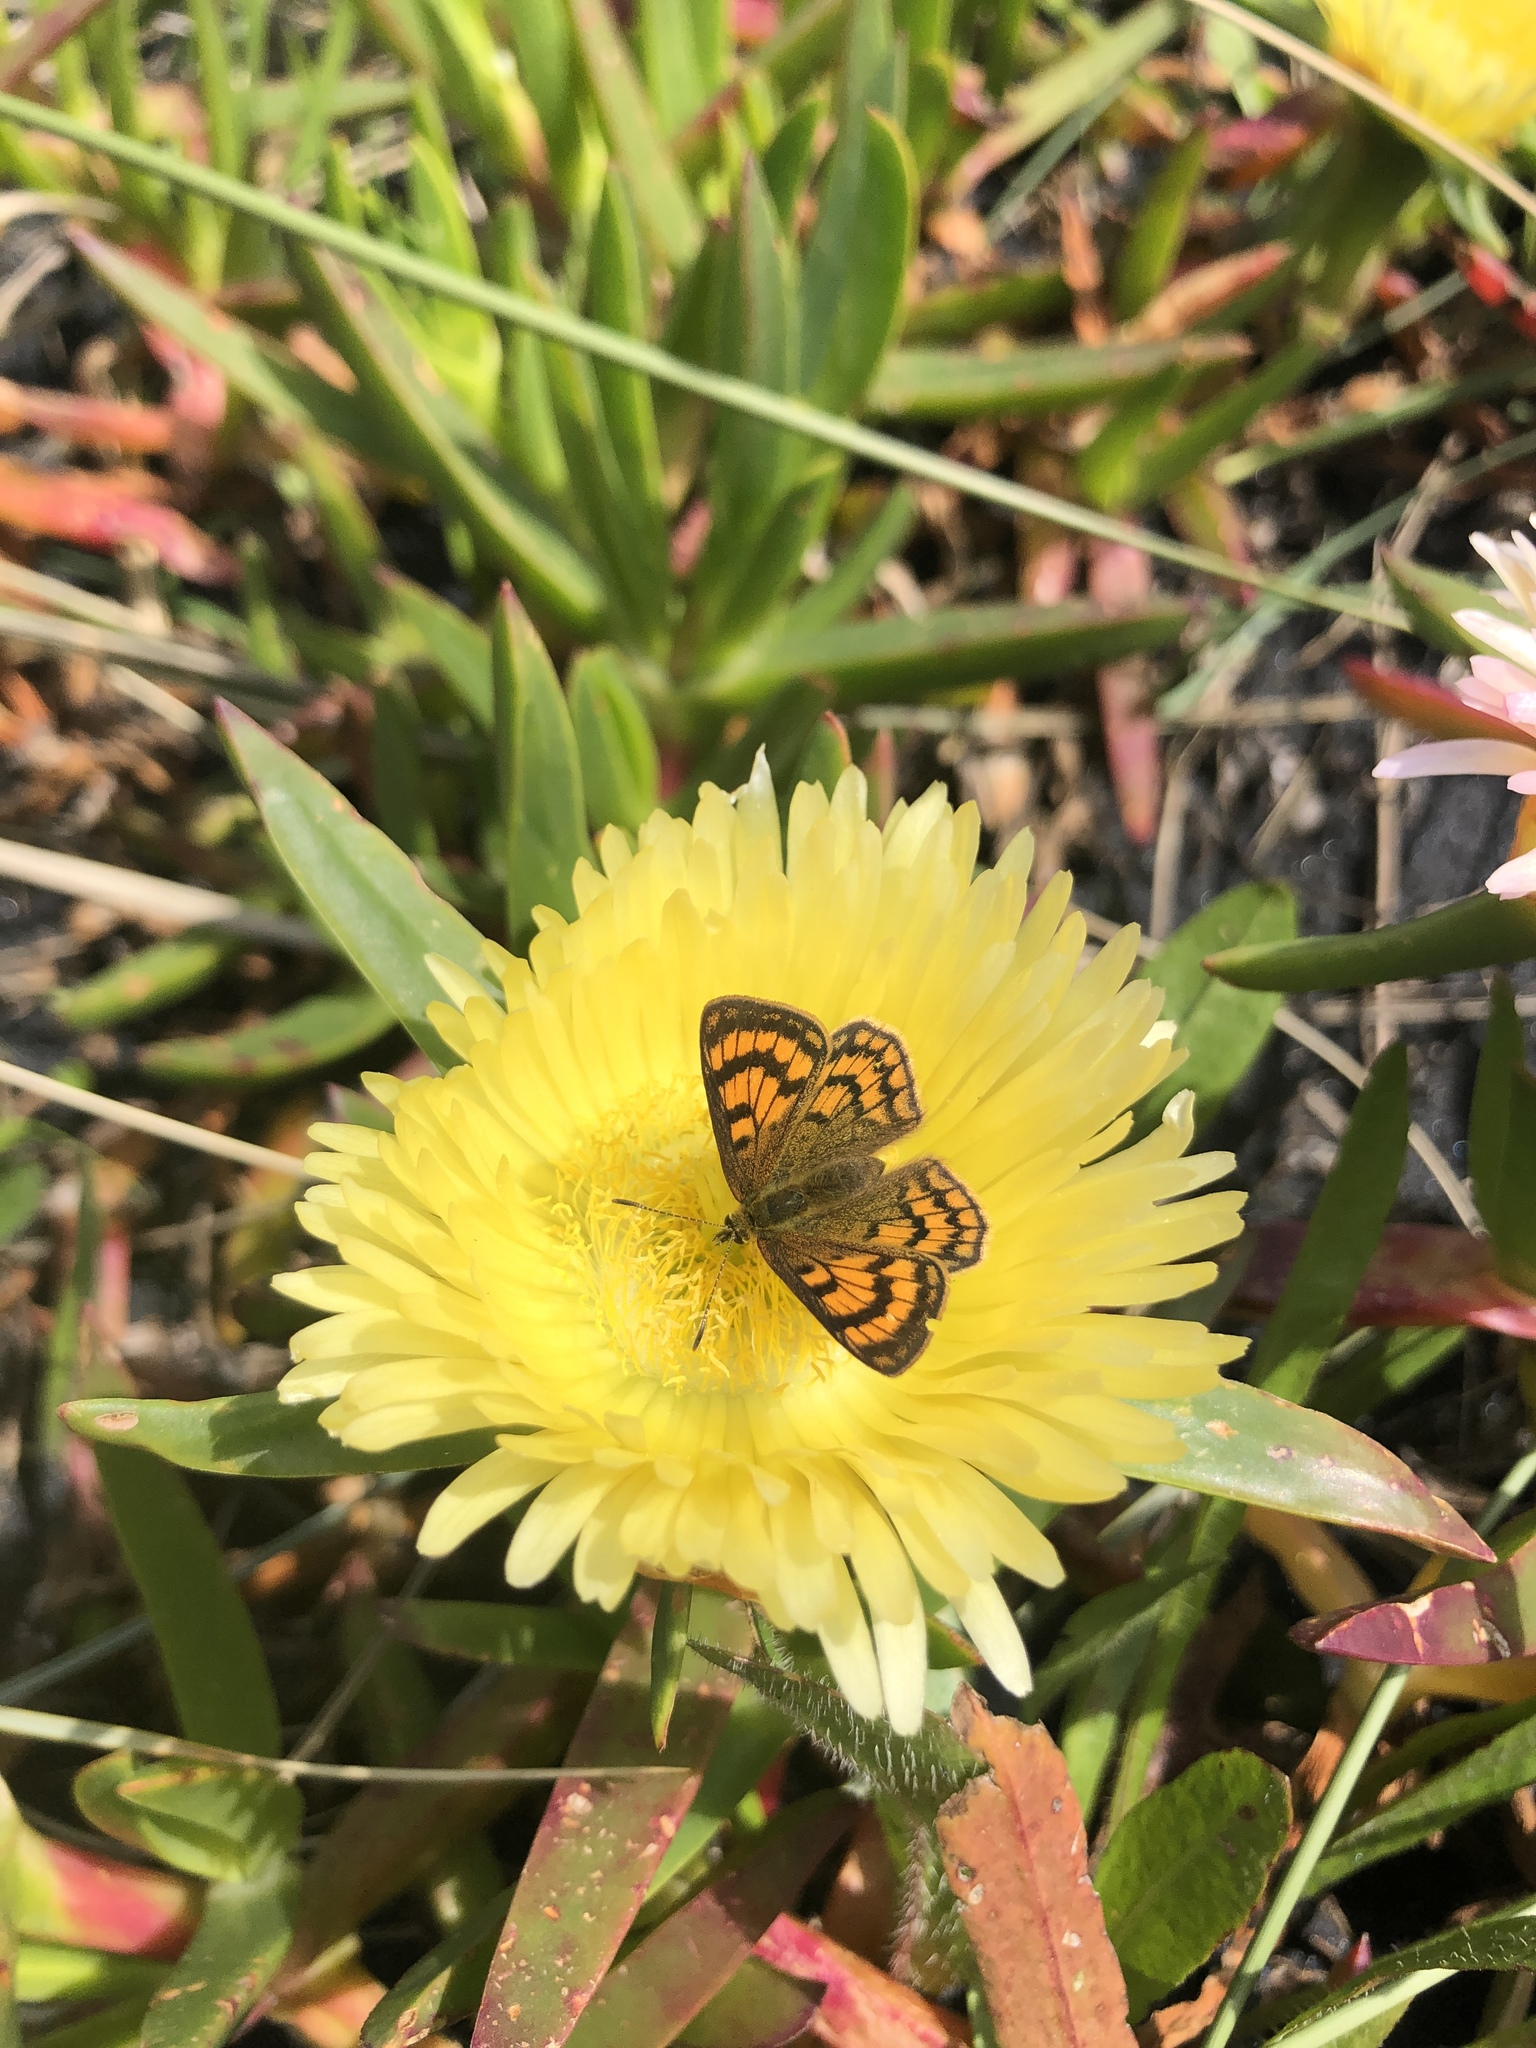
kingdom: Animalia
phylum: Arthropoda
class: Insecta
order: Lepidoptera
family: Lycaenidae
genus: Lycaena
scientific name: Lycaena salustius
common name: North island coastal copper
